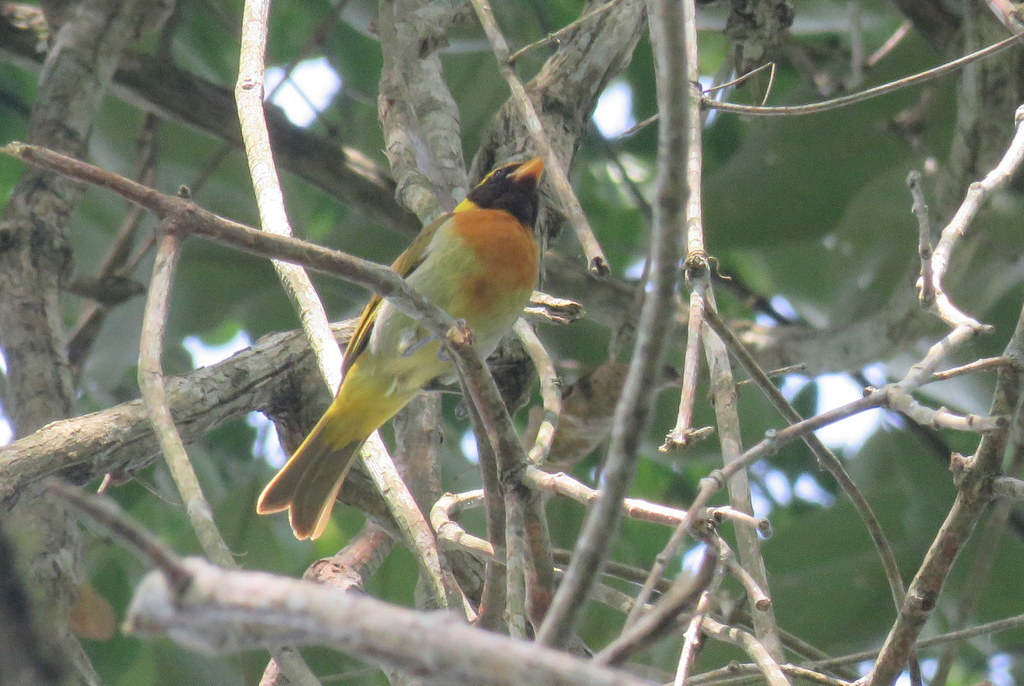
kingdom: Animalia
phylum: Chordata
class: Aves
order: Passeriformes
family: Thraupidae
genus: Hemithraupis
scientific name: Hemithraupis guira
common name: Guira tanager
